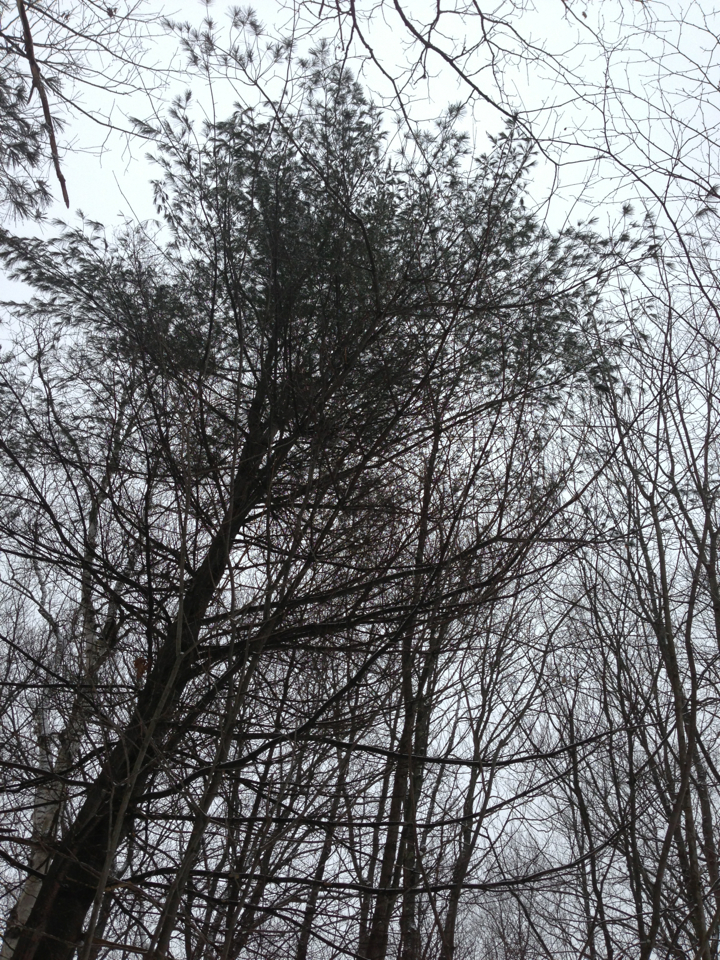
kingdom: Plantae
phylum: Tracheophyta
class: Pinopsida
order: Pinales
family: Pinaceae
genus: Pinus
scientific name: Pinus strobus
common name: Weymouth pine
